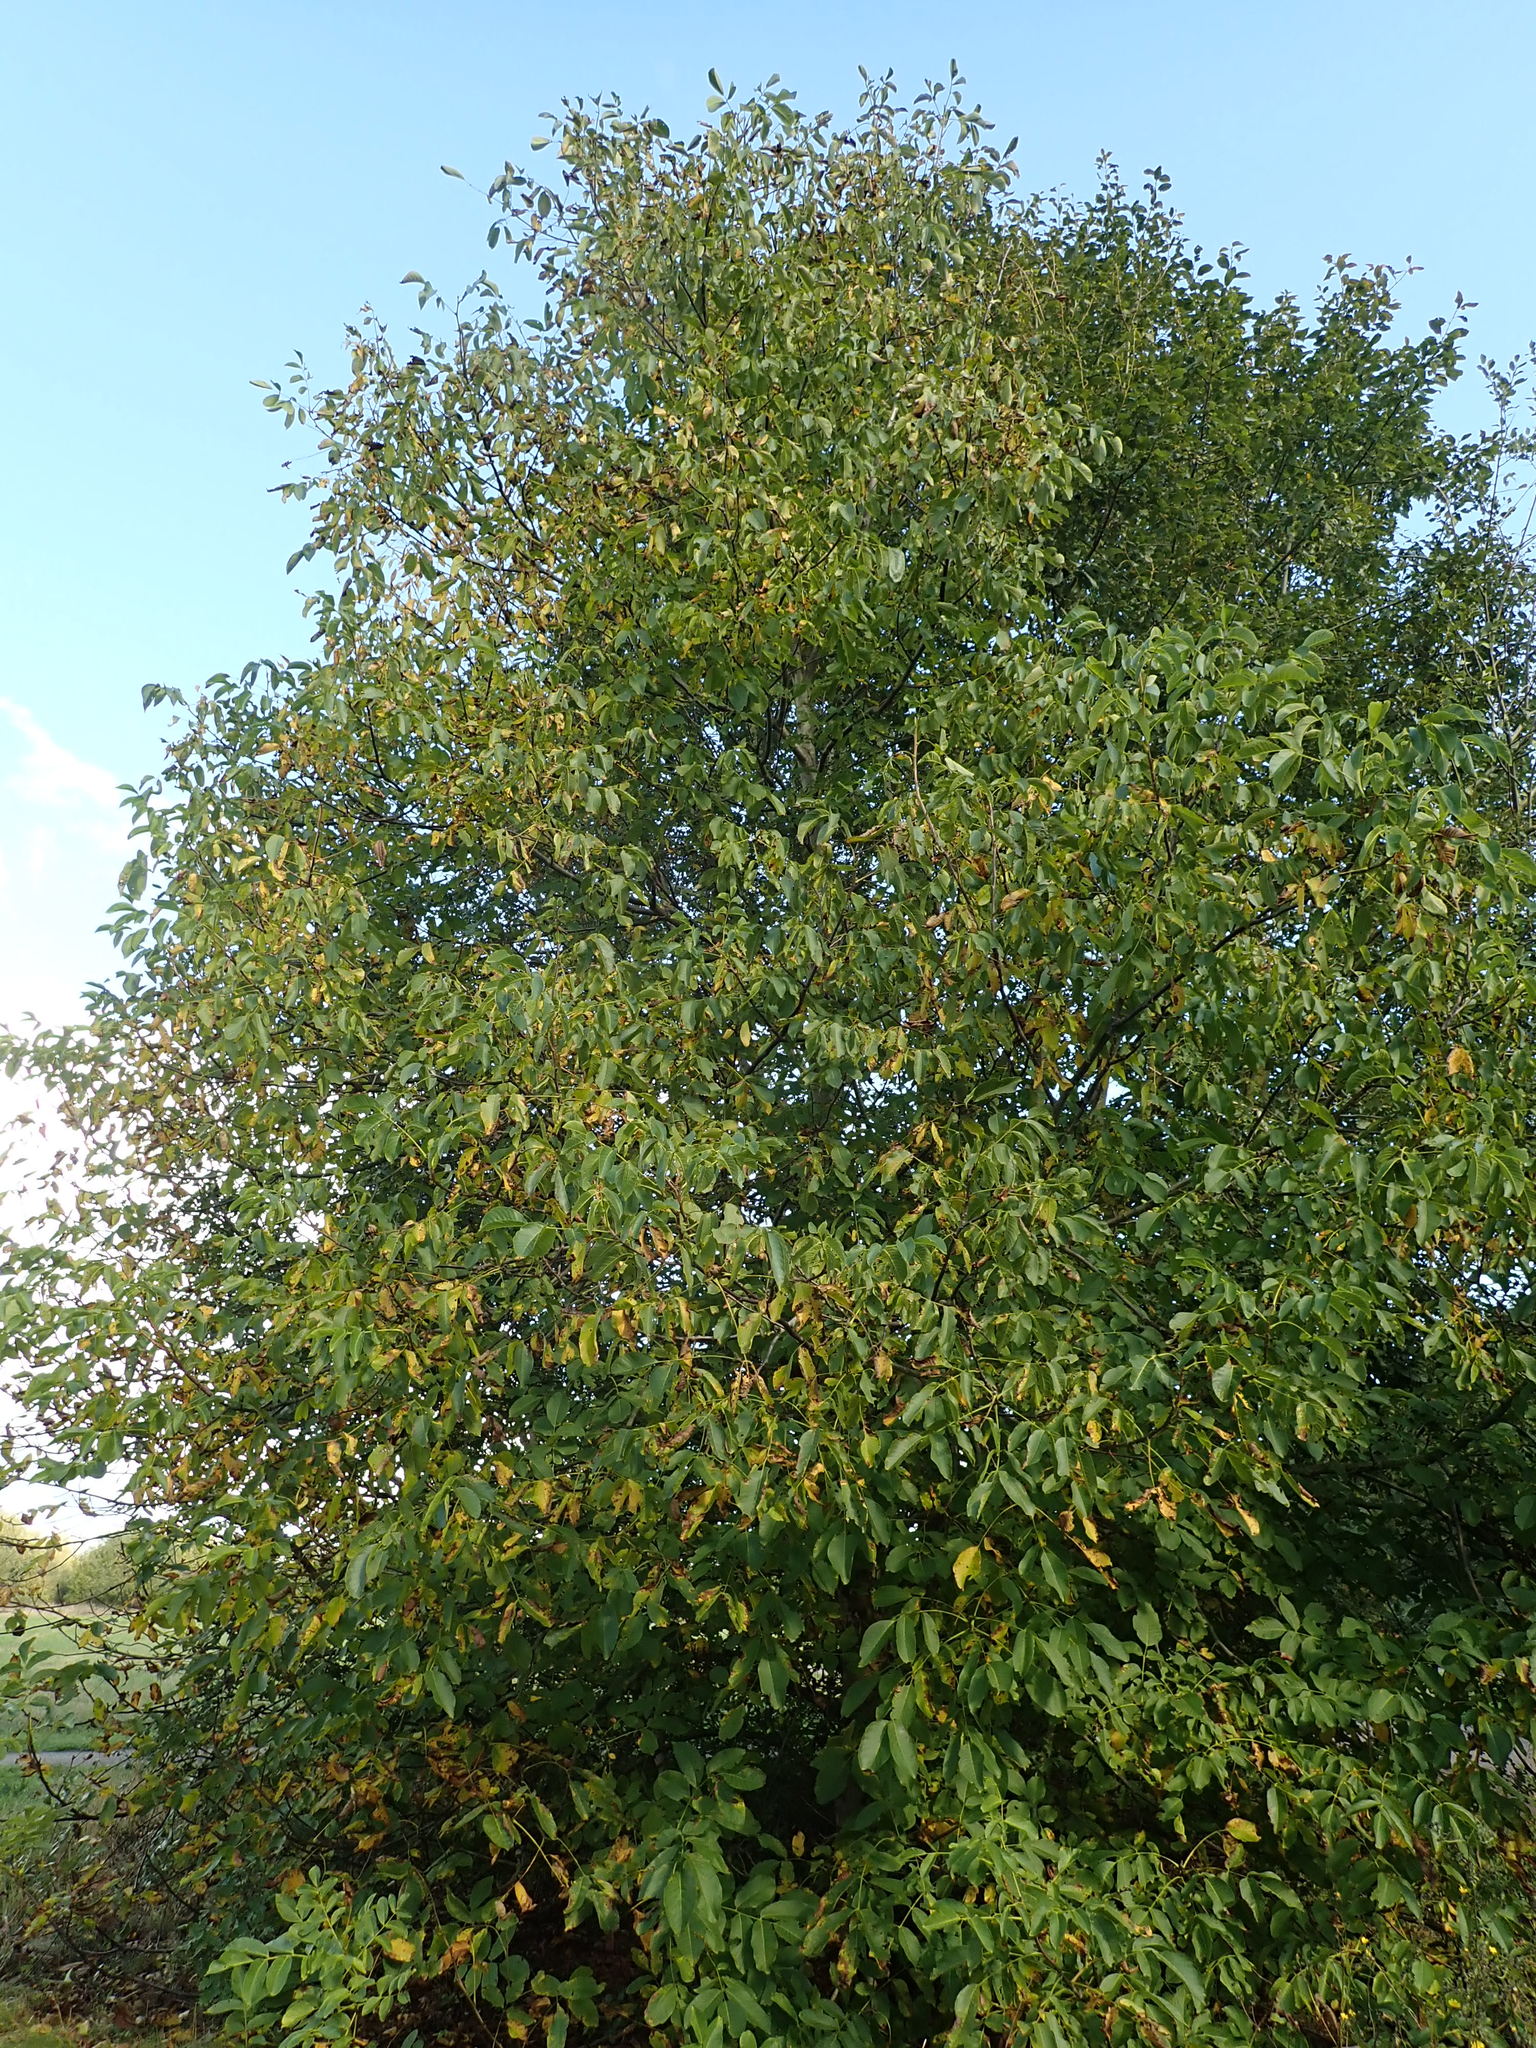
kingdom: Plantae
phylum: Tracheophyta
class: Magnoliopsida
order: Fagales
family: Juglandaceae
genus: Juglans
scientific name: Juglans regia
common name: Walnut
